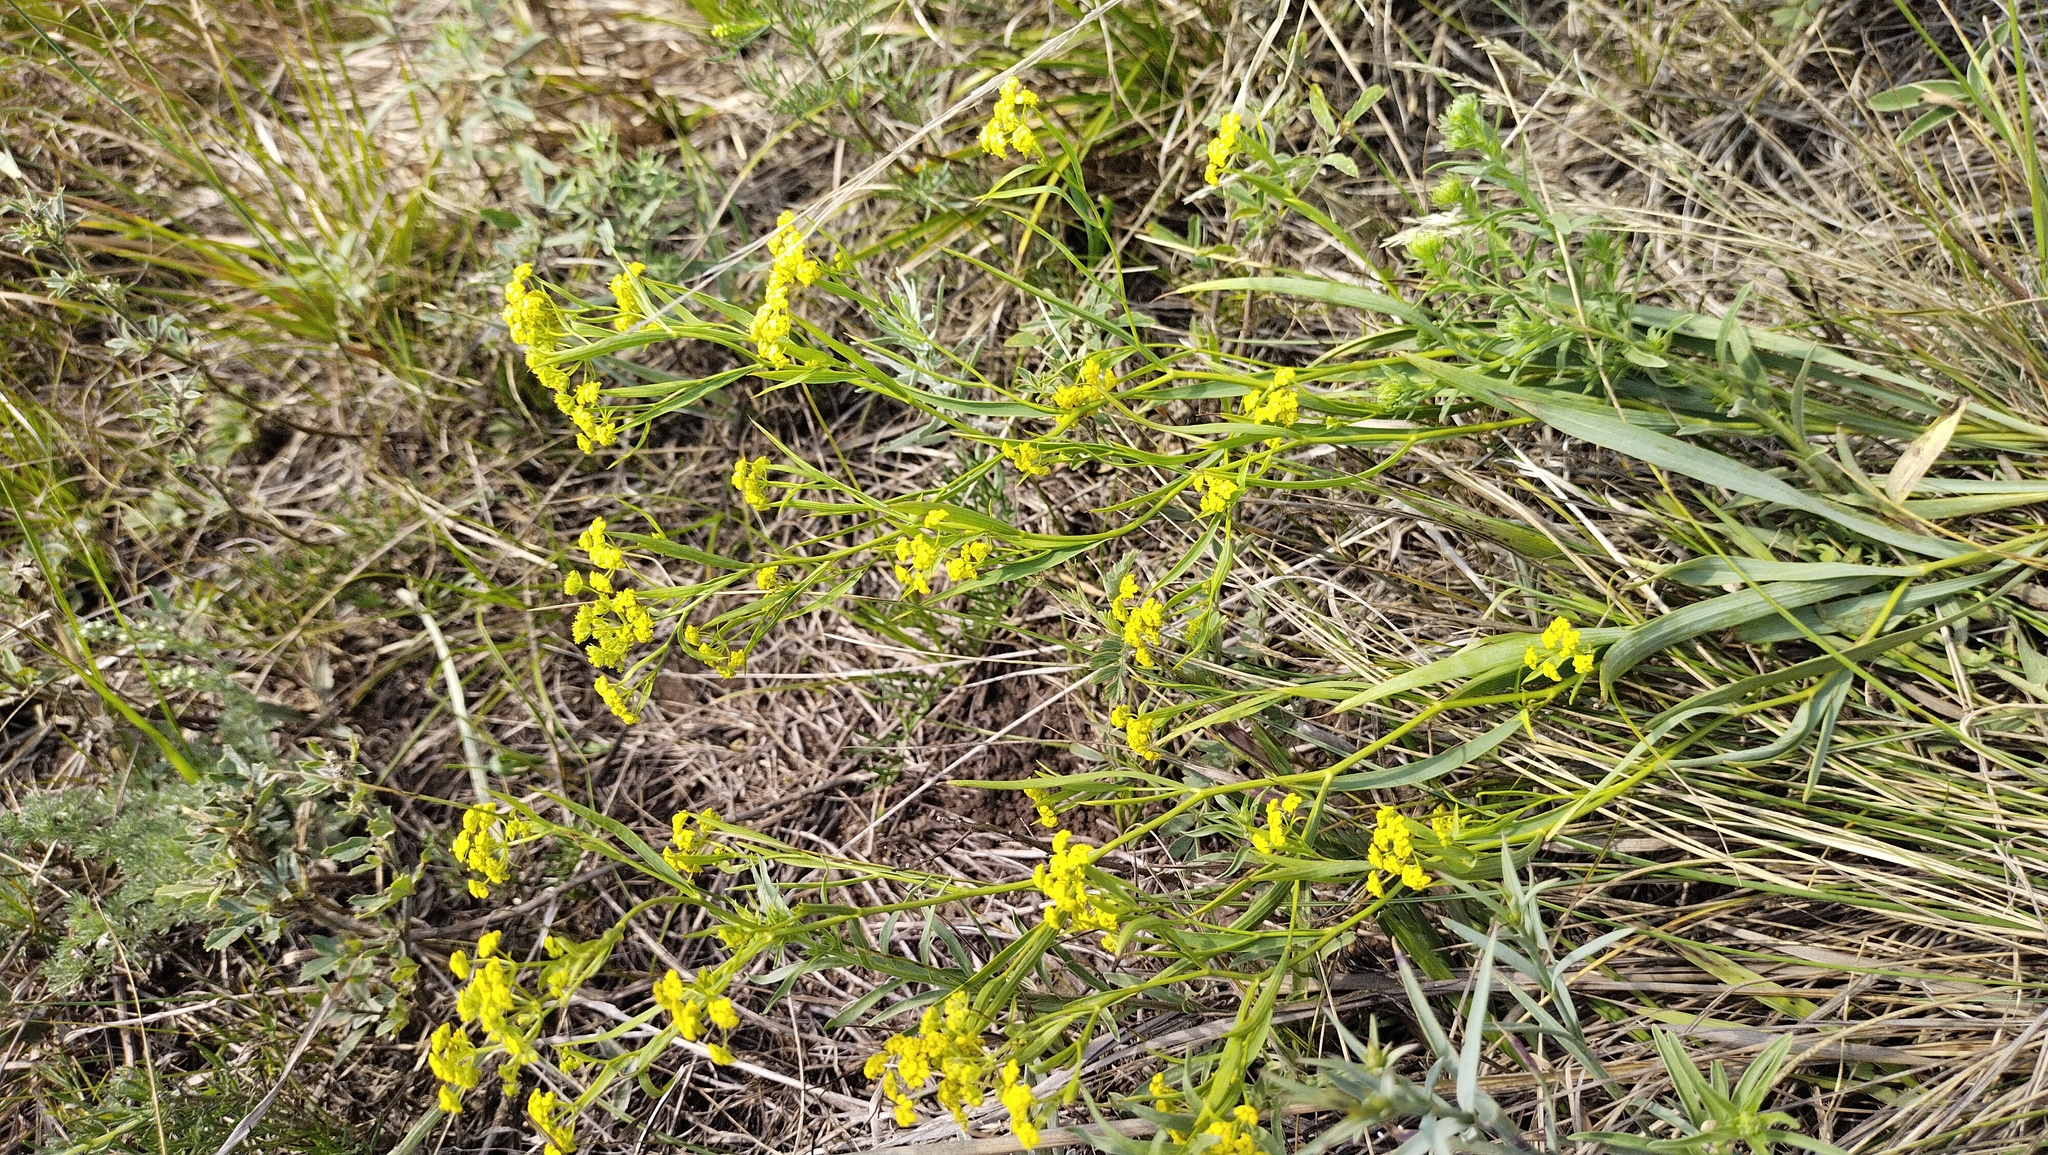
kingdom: Plantae
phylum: Tracheophyta
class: Magnoliopsida
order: Apiales
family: Apiaceae
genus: Bupleurum
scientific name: Bupleurum scorzonerifolium
